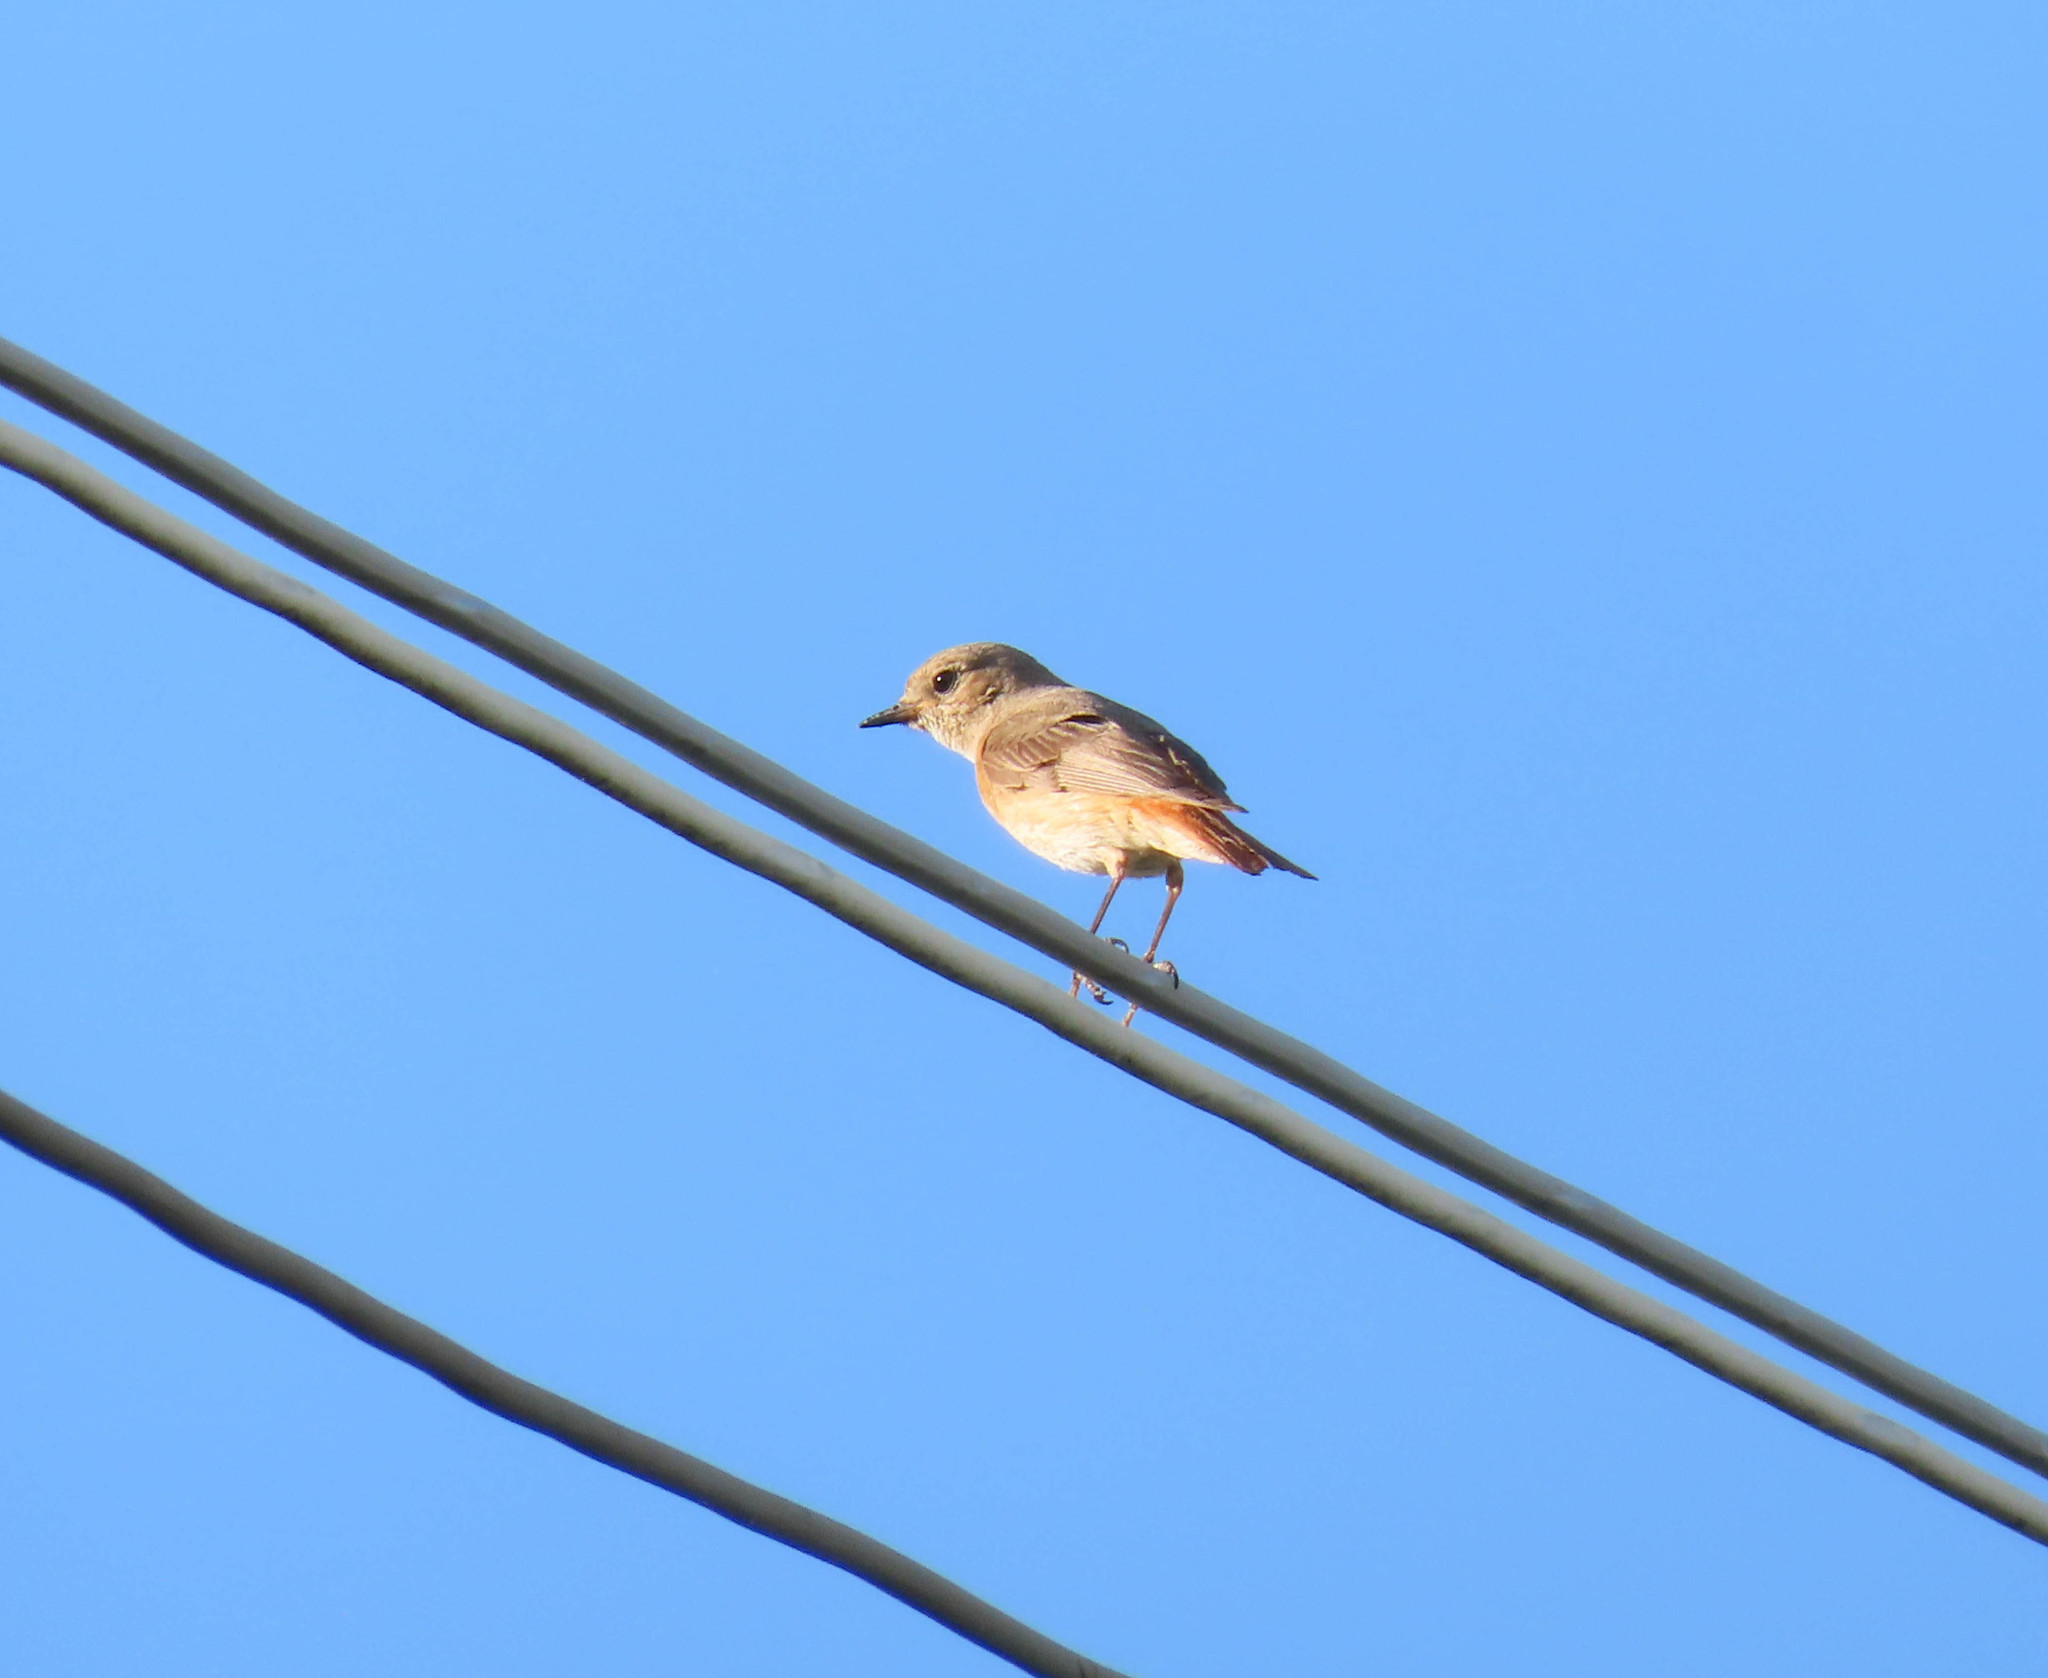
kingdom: Animalia
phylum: Chordata
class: Aves
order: Passeriformes
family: Muscicapidae
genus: Phoenicurus
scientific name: Phoenicurus phoenicurus
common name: Common redstart
